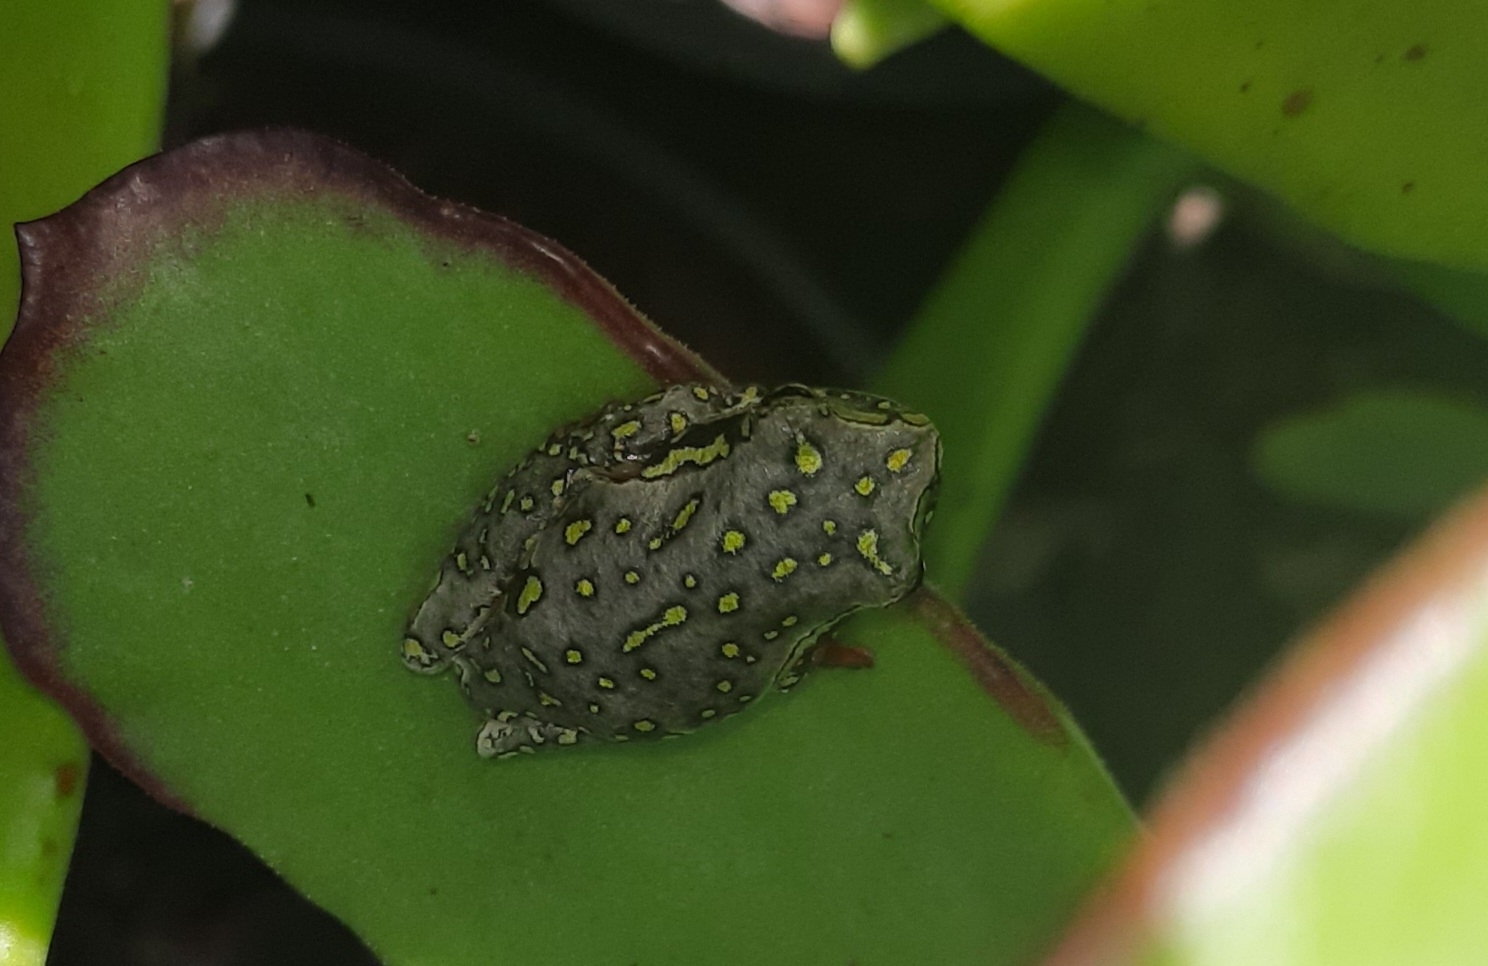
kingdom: Animalia
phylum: Chordata
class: Amphibia
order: Anura
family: Hyperoliidae
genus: Hyperolius
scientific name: Hyperolius marmoratus
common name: Painted reed frog
